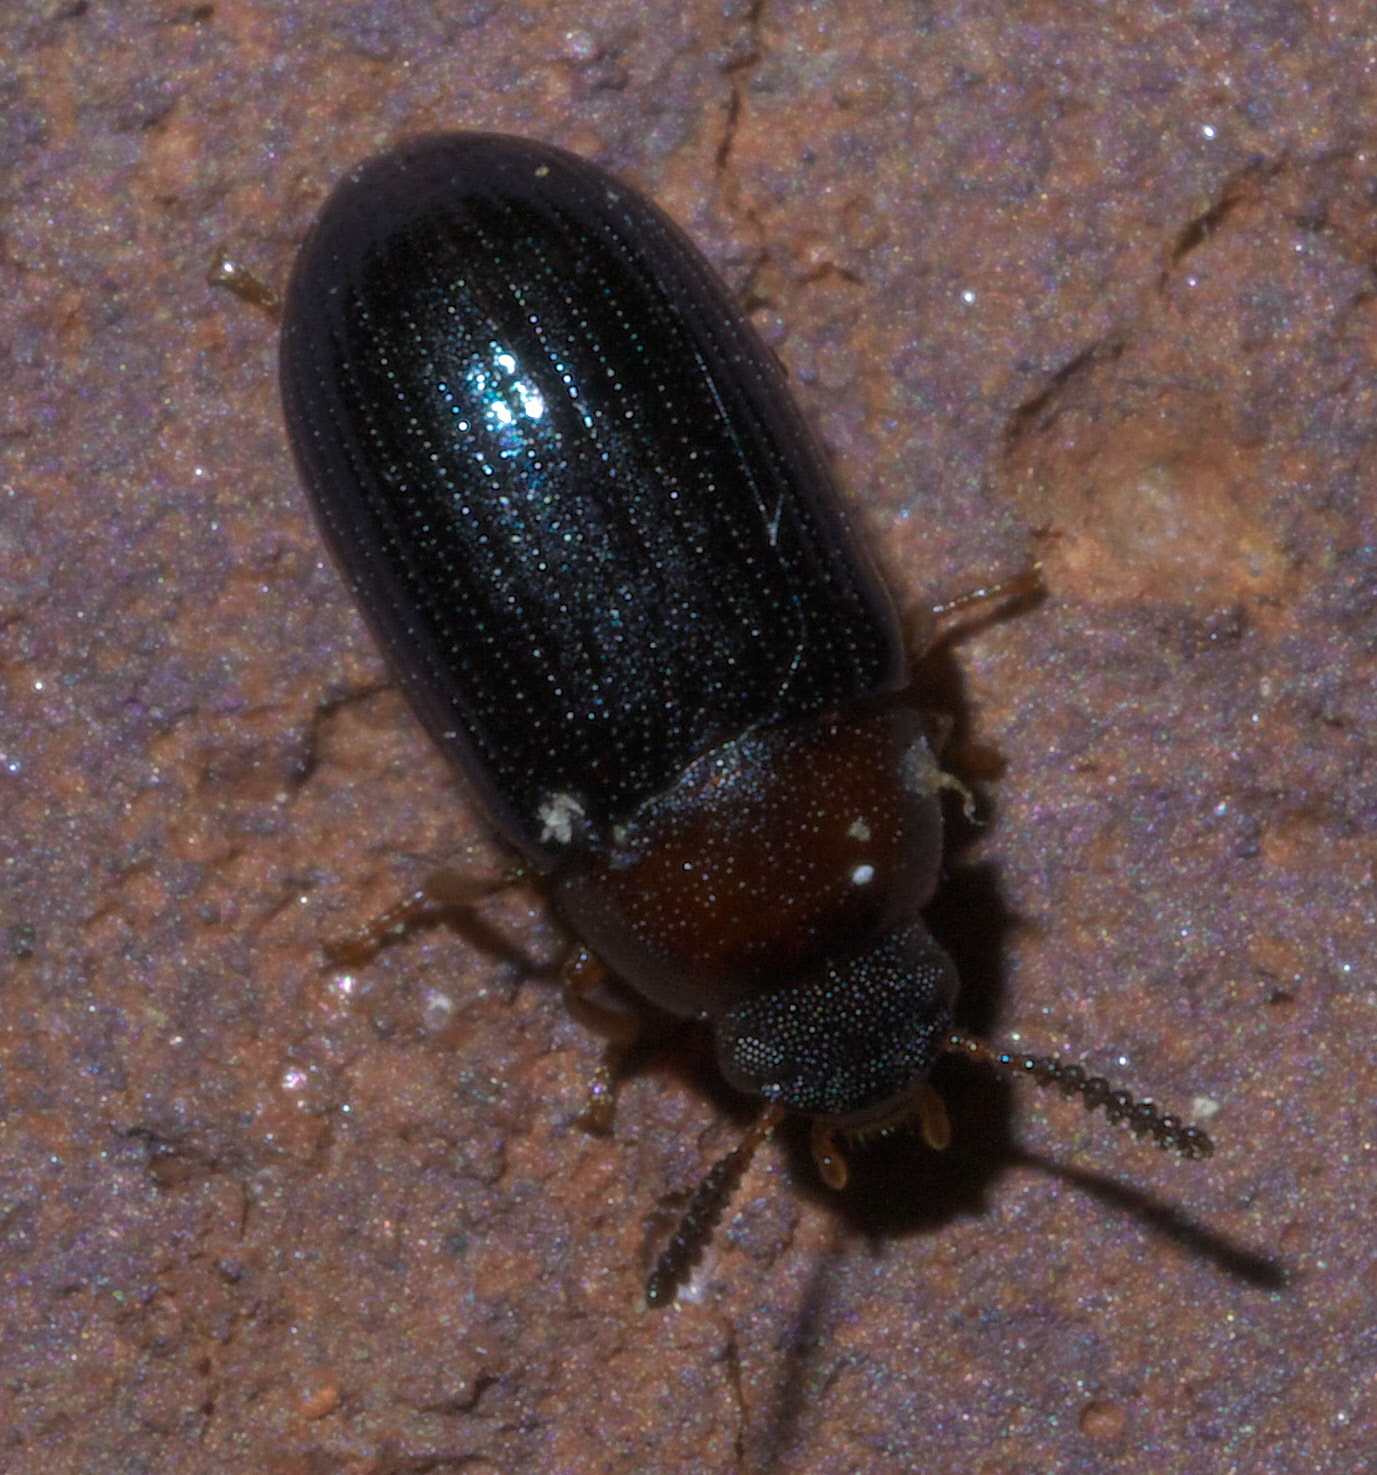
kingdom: Animalia
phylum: Arthropoda
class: Insecta
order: Coleoptera
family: Tenebrionidae
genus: Neomida
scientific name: Neomida bicornis
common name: Two-horned darkling beetle
